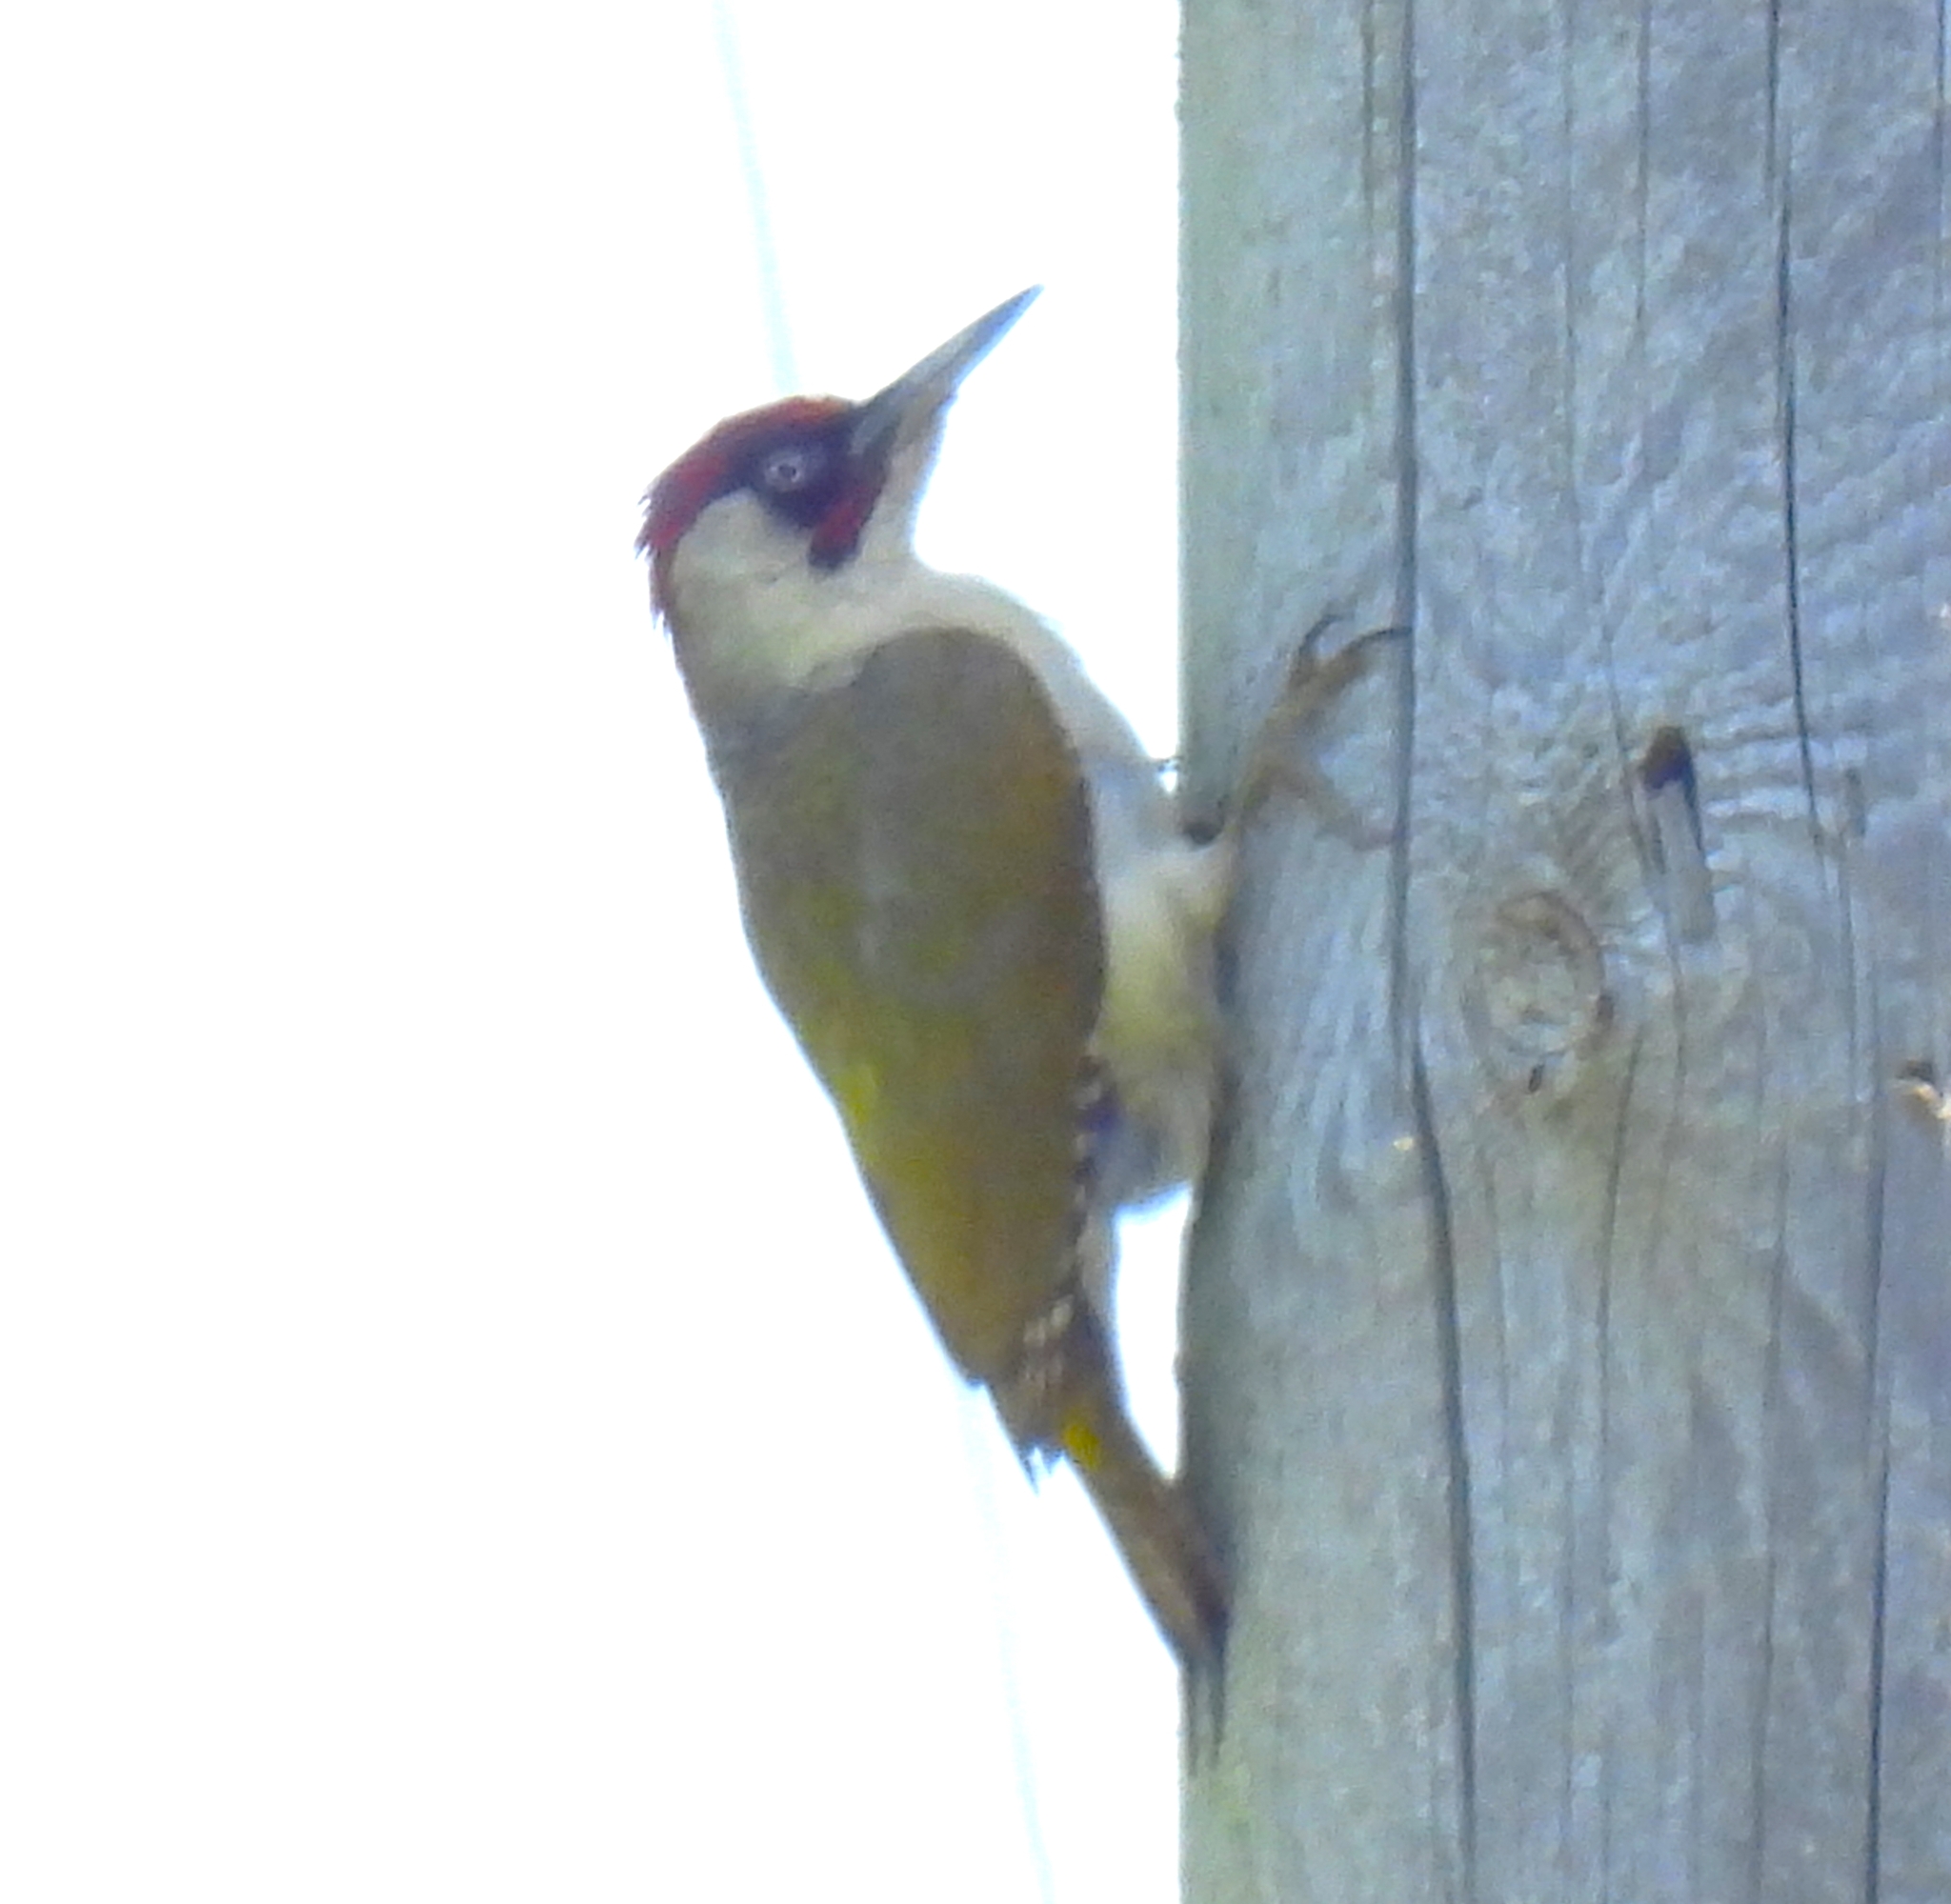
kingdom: Animalia
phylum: Chordata
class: Aves
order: Piciformes
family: Picidae
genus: Picus
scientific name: Picus viridis
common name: European green woodpecker
